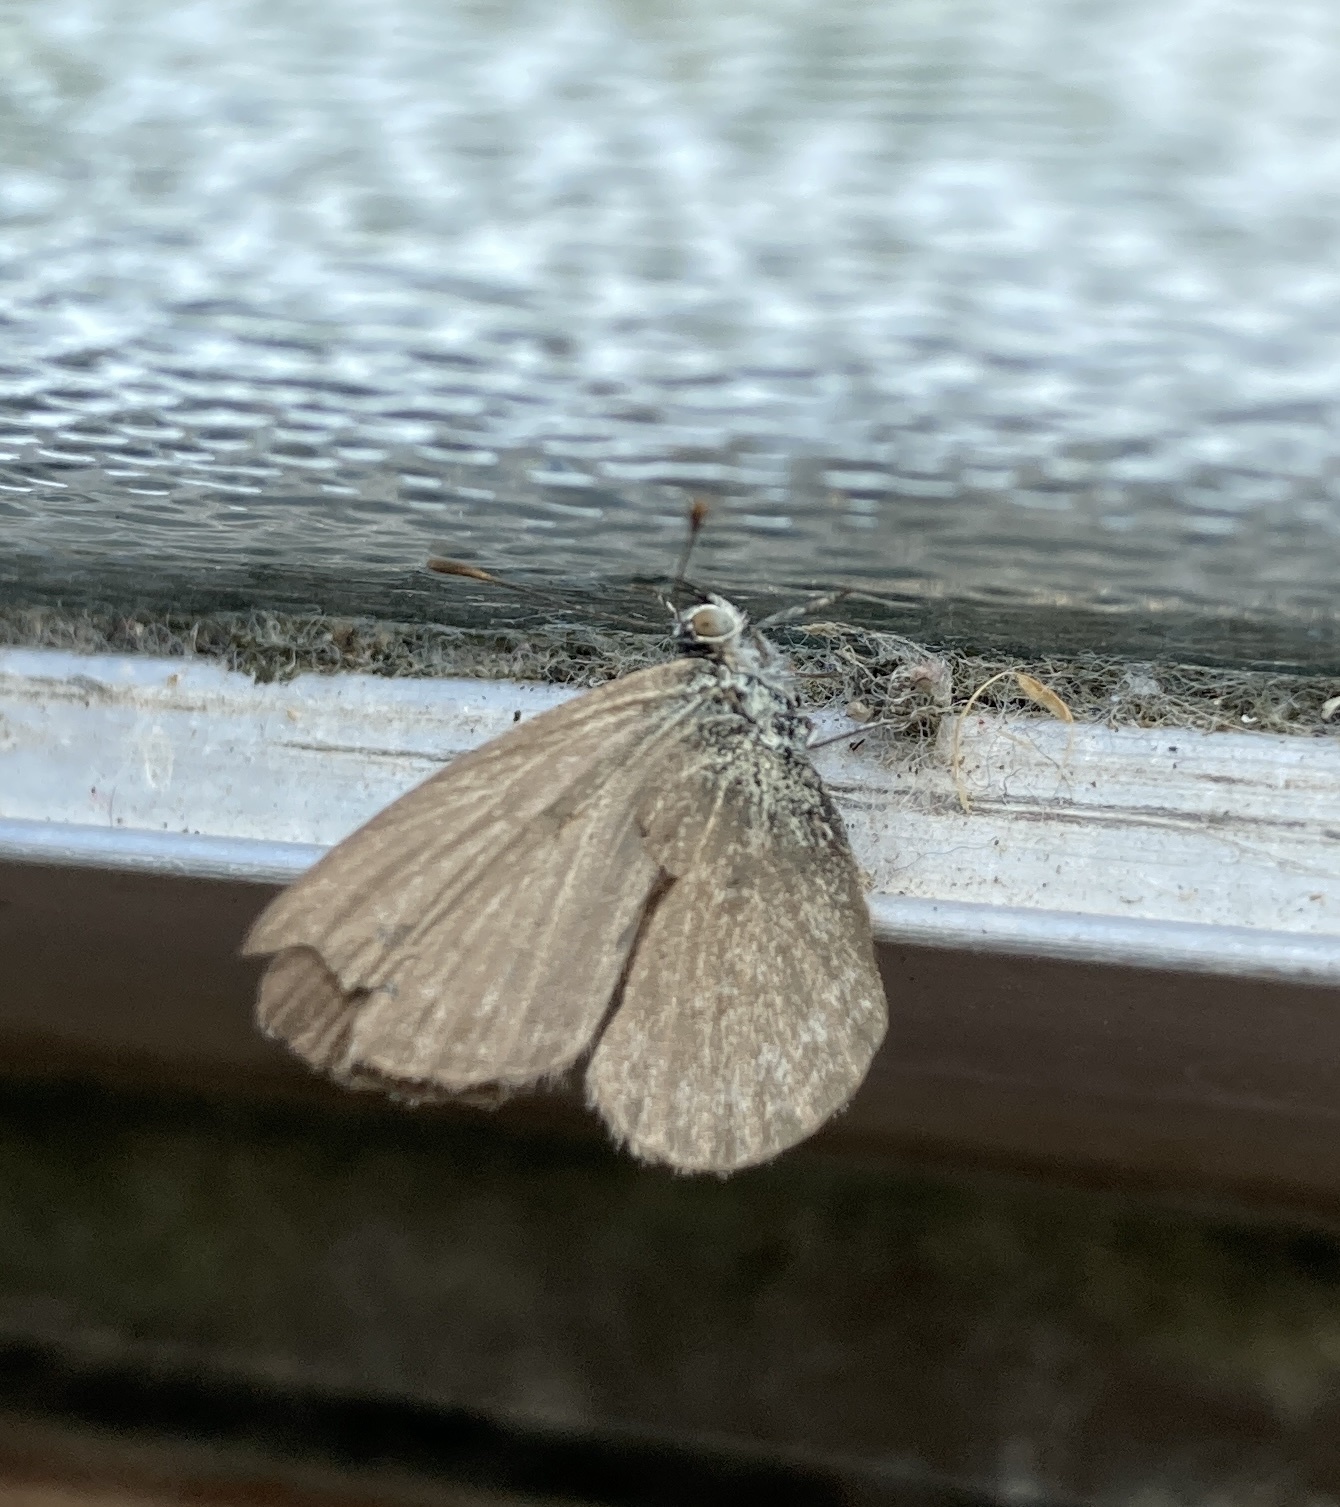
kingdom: Animalia
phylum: Arthropoda
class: Insecta
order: Lepidoptera
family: Lycaenidae
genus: Zizina
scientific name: Zizina otis
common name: Lesser grass blue
